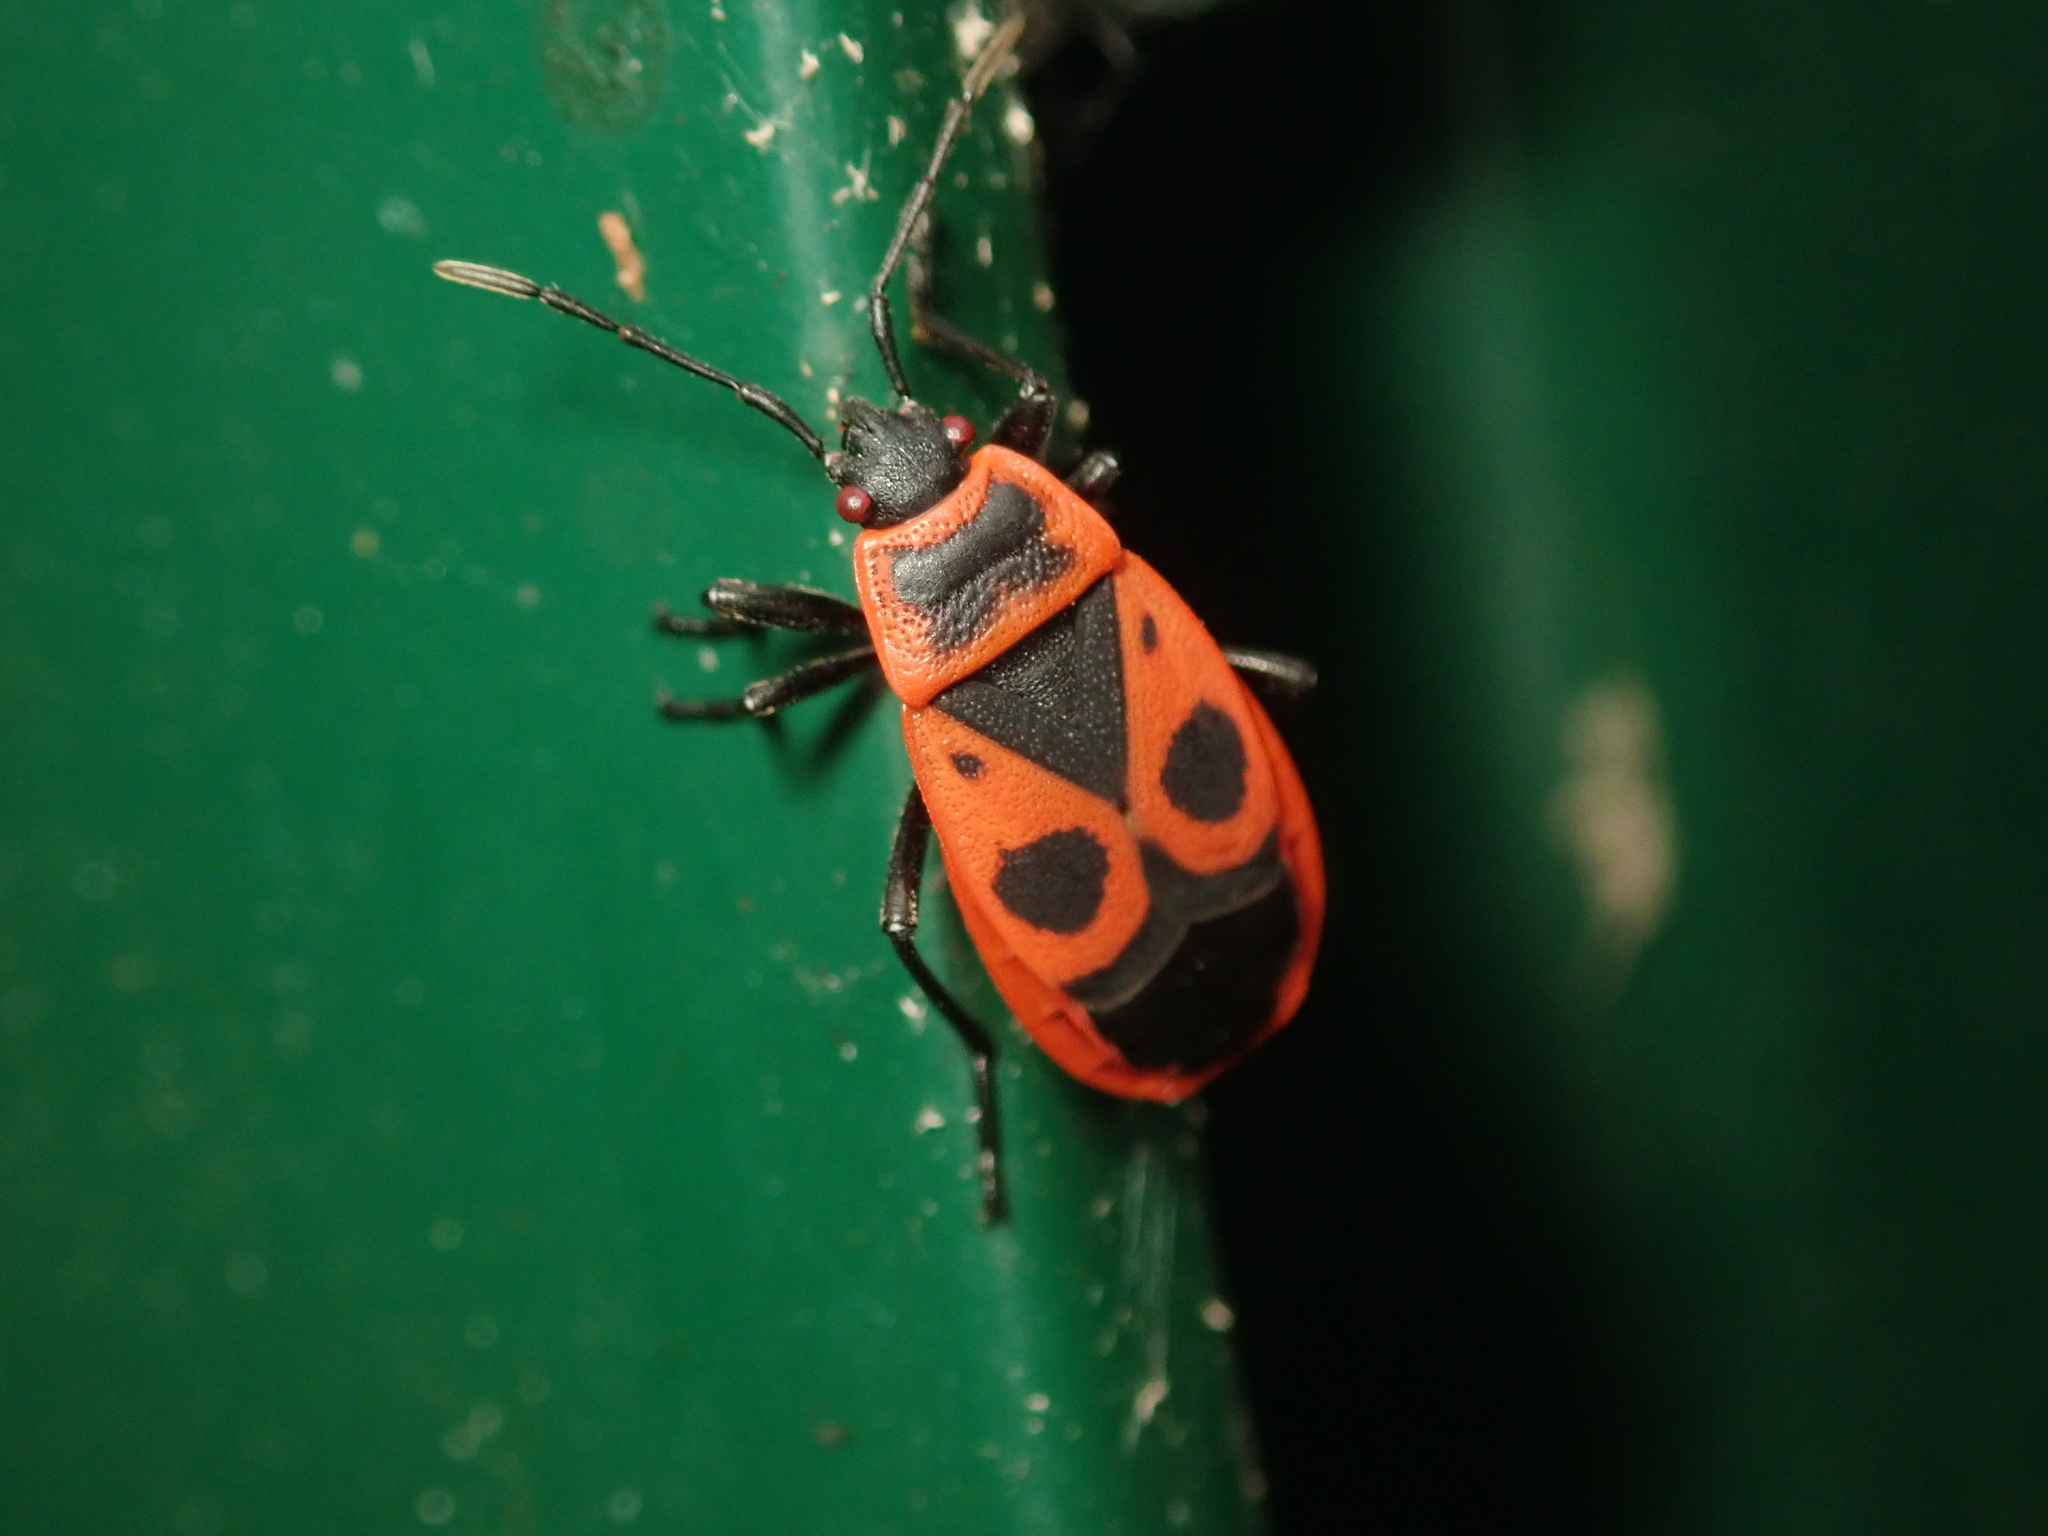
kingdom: Animalia
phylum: Arthropoda
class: Insecta
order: Hemiptera
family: Pyrrhocoridae
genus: Pyrrhocoris
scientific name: Pyrrhocoris apterus
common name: Firebug
